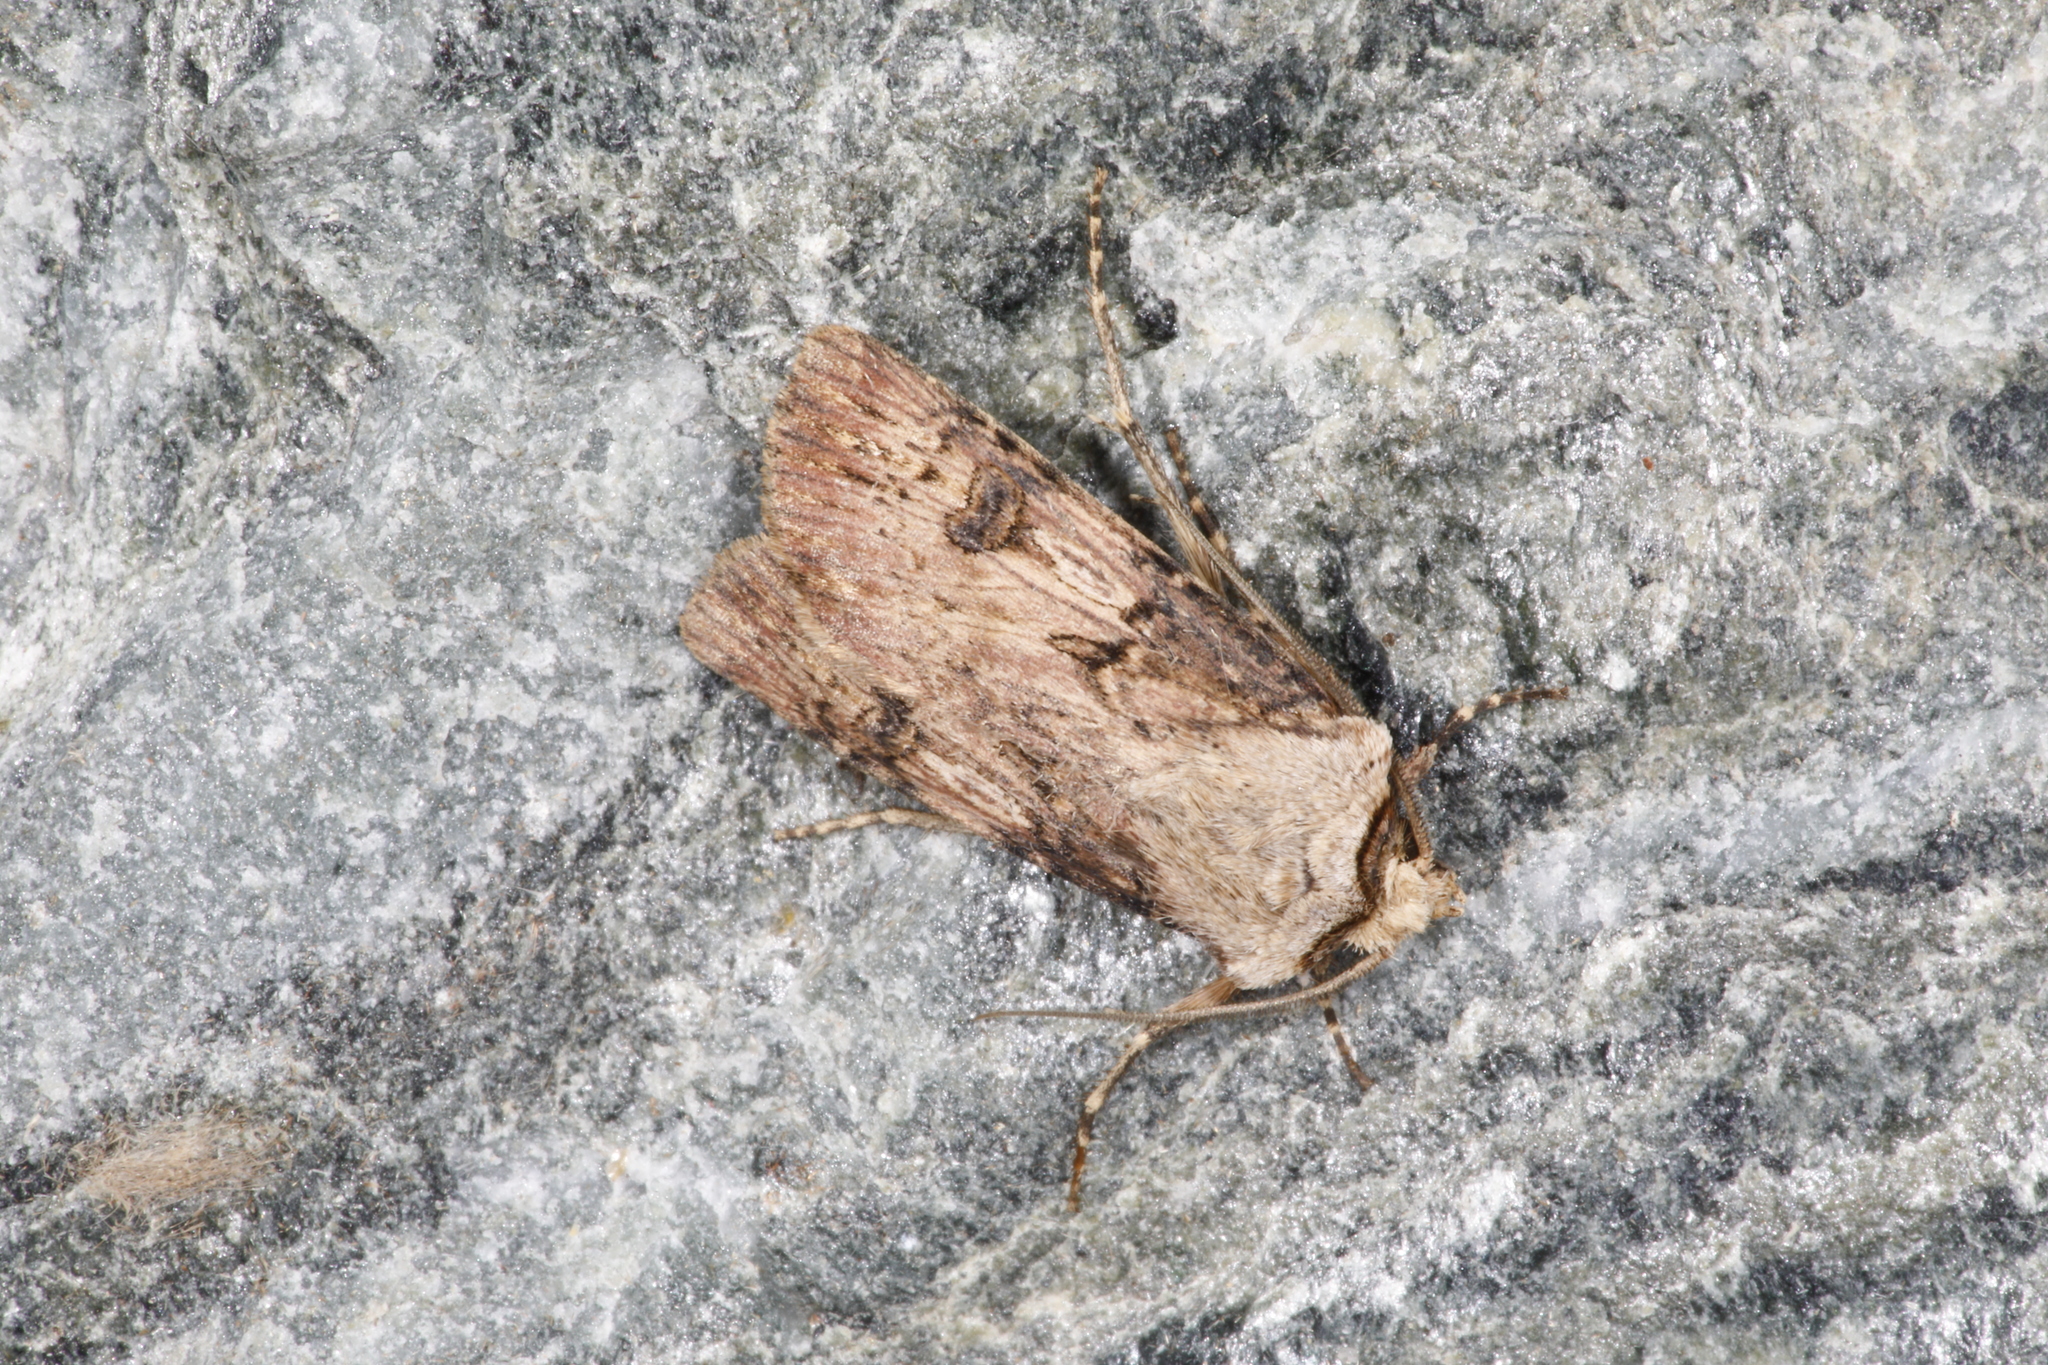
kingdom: Animalia
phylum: Arthropoda
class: Insecta
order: Lepidoptera
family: Noctuidae
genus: Agrotis
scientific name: Agrotis puta
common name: Shuttle-shaped dart
